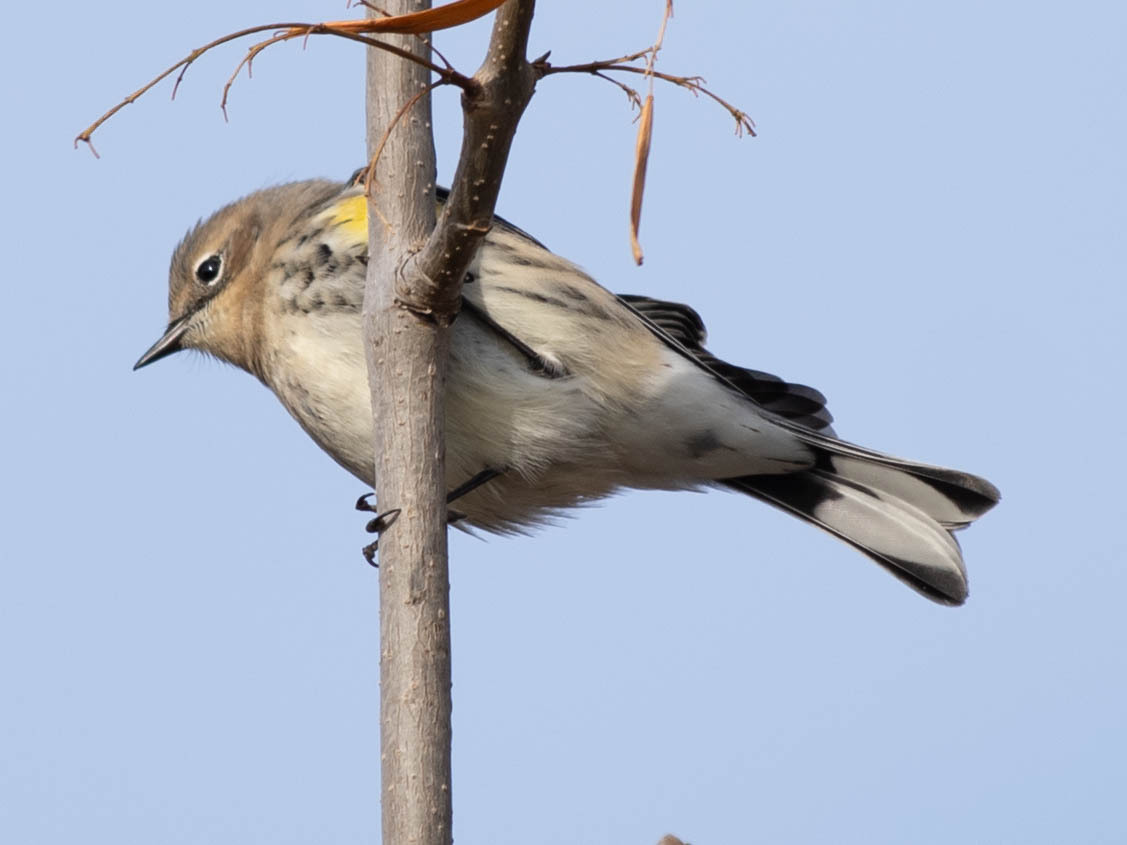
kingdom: Animalia
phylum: Chordata
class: Aves
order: Passeriformes
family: Parulidae
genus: Setophaga
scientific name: Setophaga coronata
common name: Myrtle warbler
